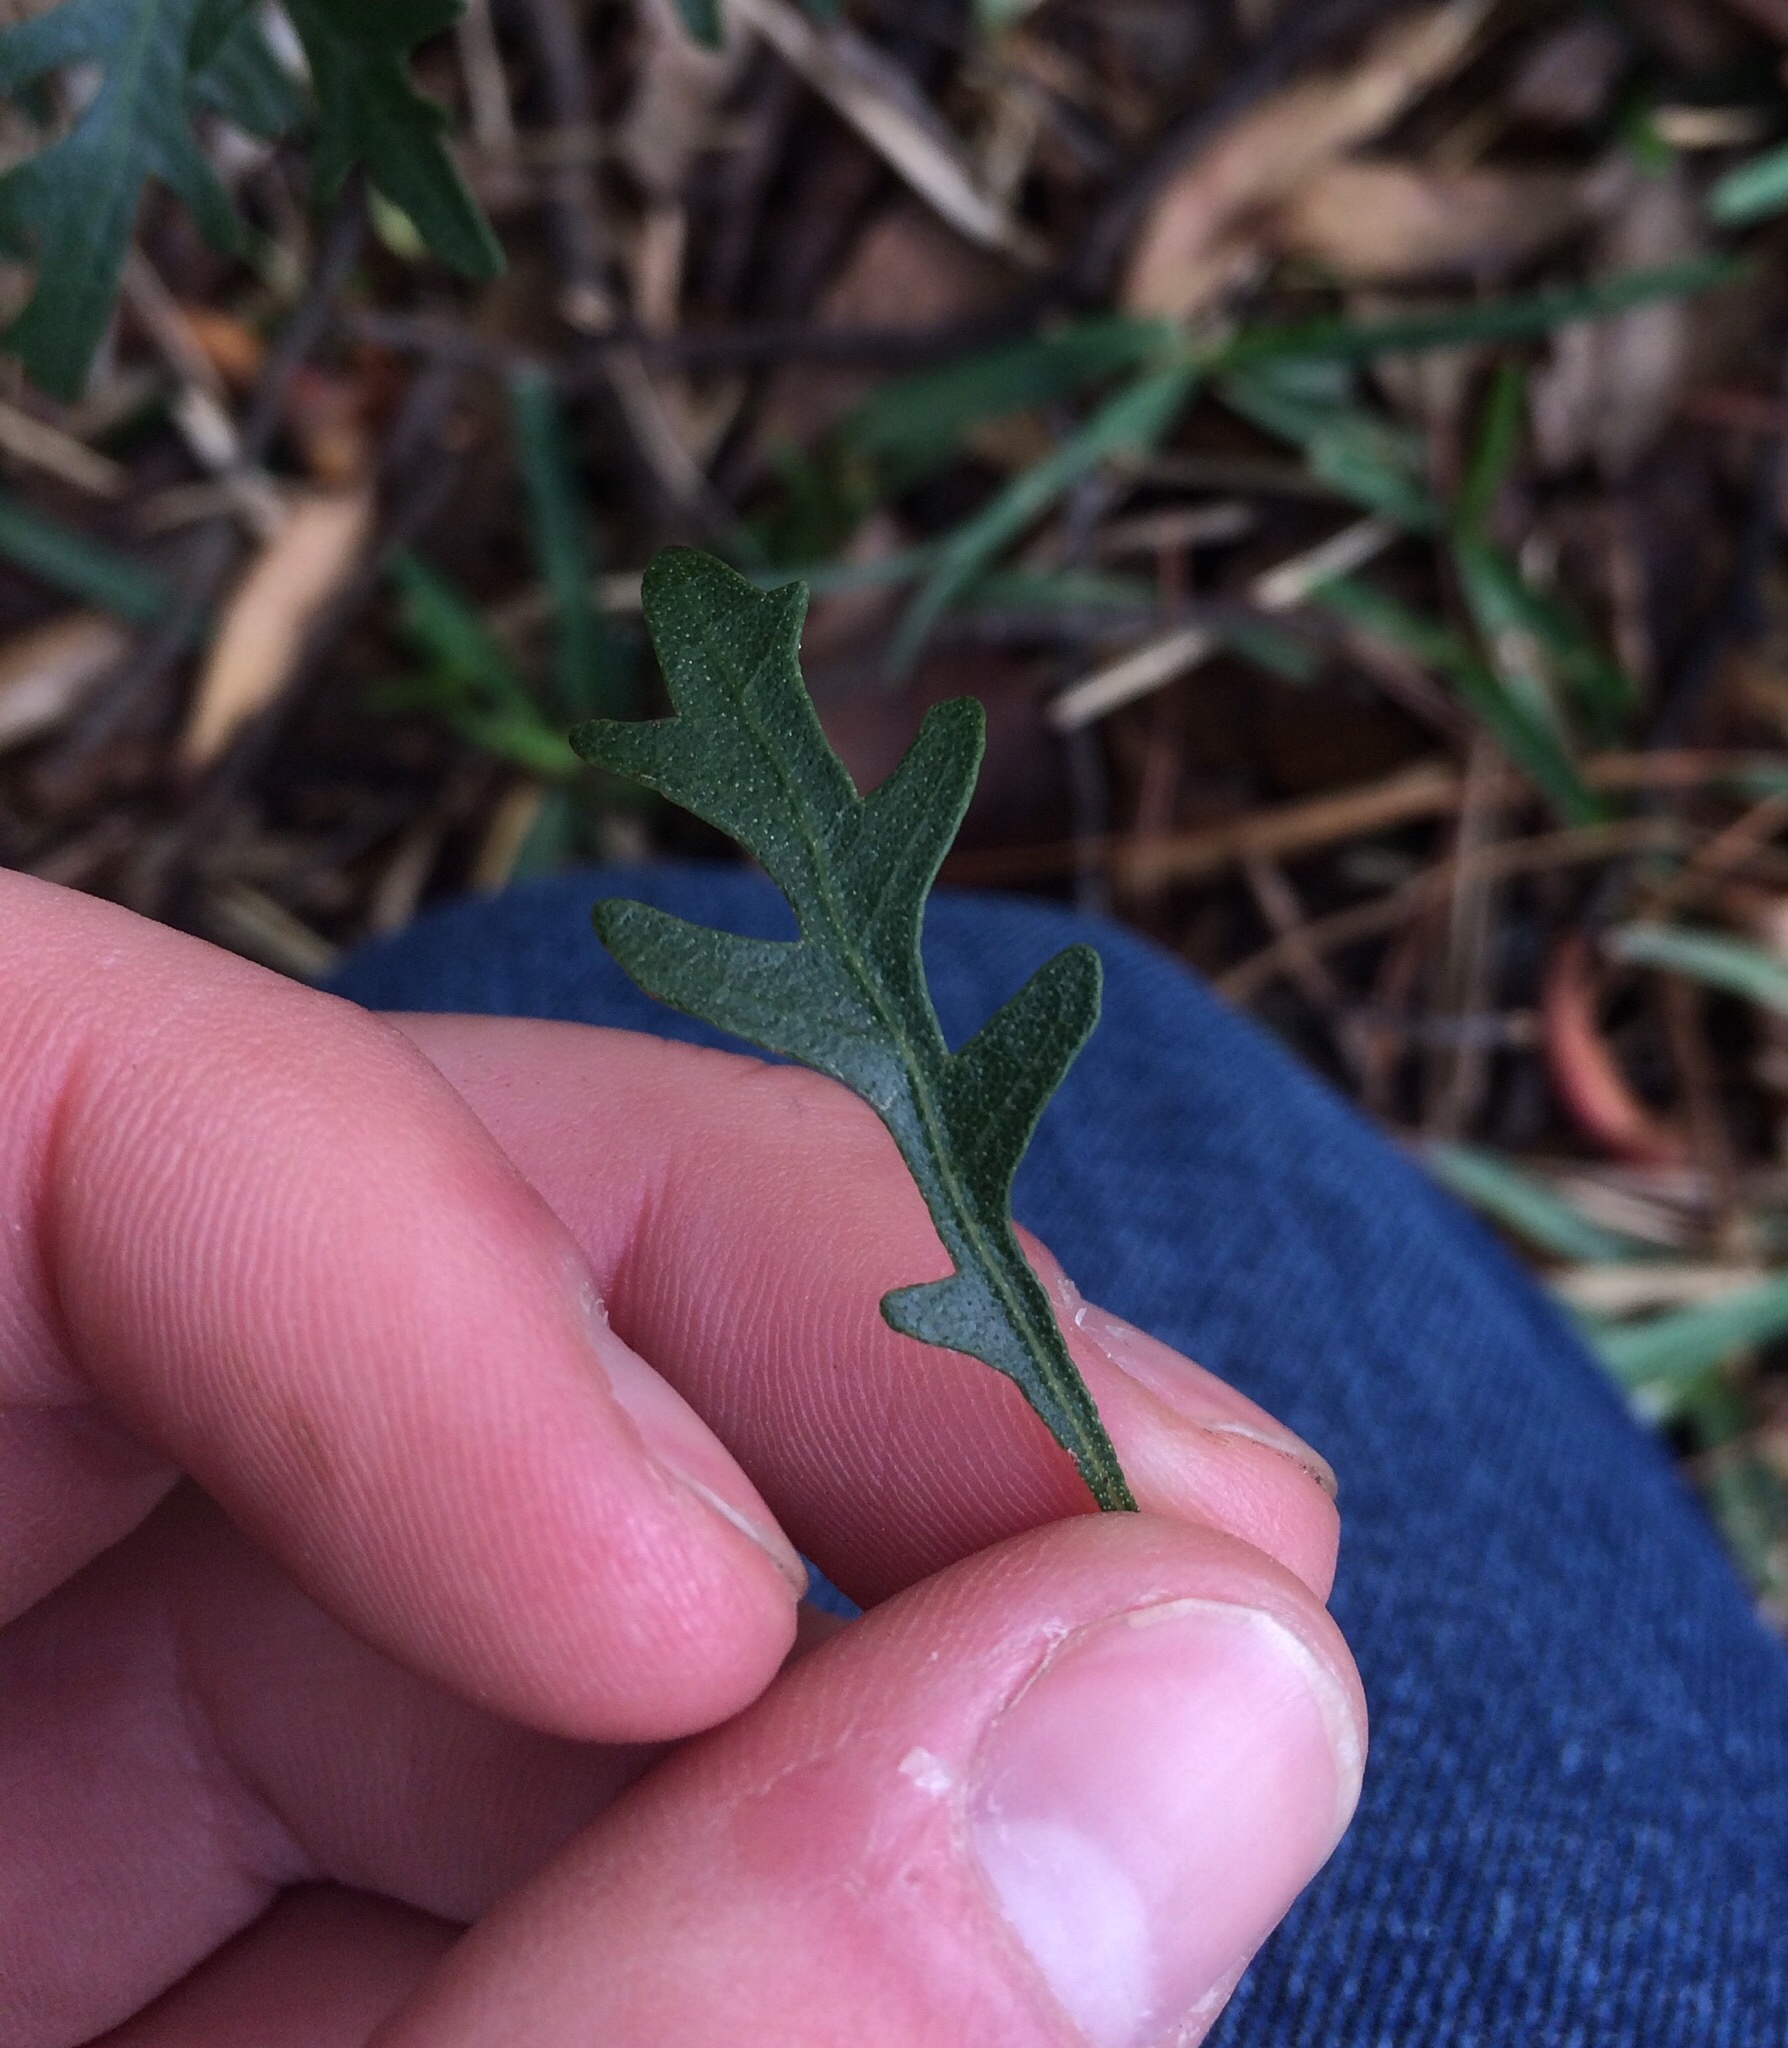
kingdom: Plantae
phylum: Tracheophyta
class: Magnoliopsida
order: Fagales
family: Myricaceae
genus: Morella
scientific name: Morella quercifolia
